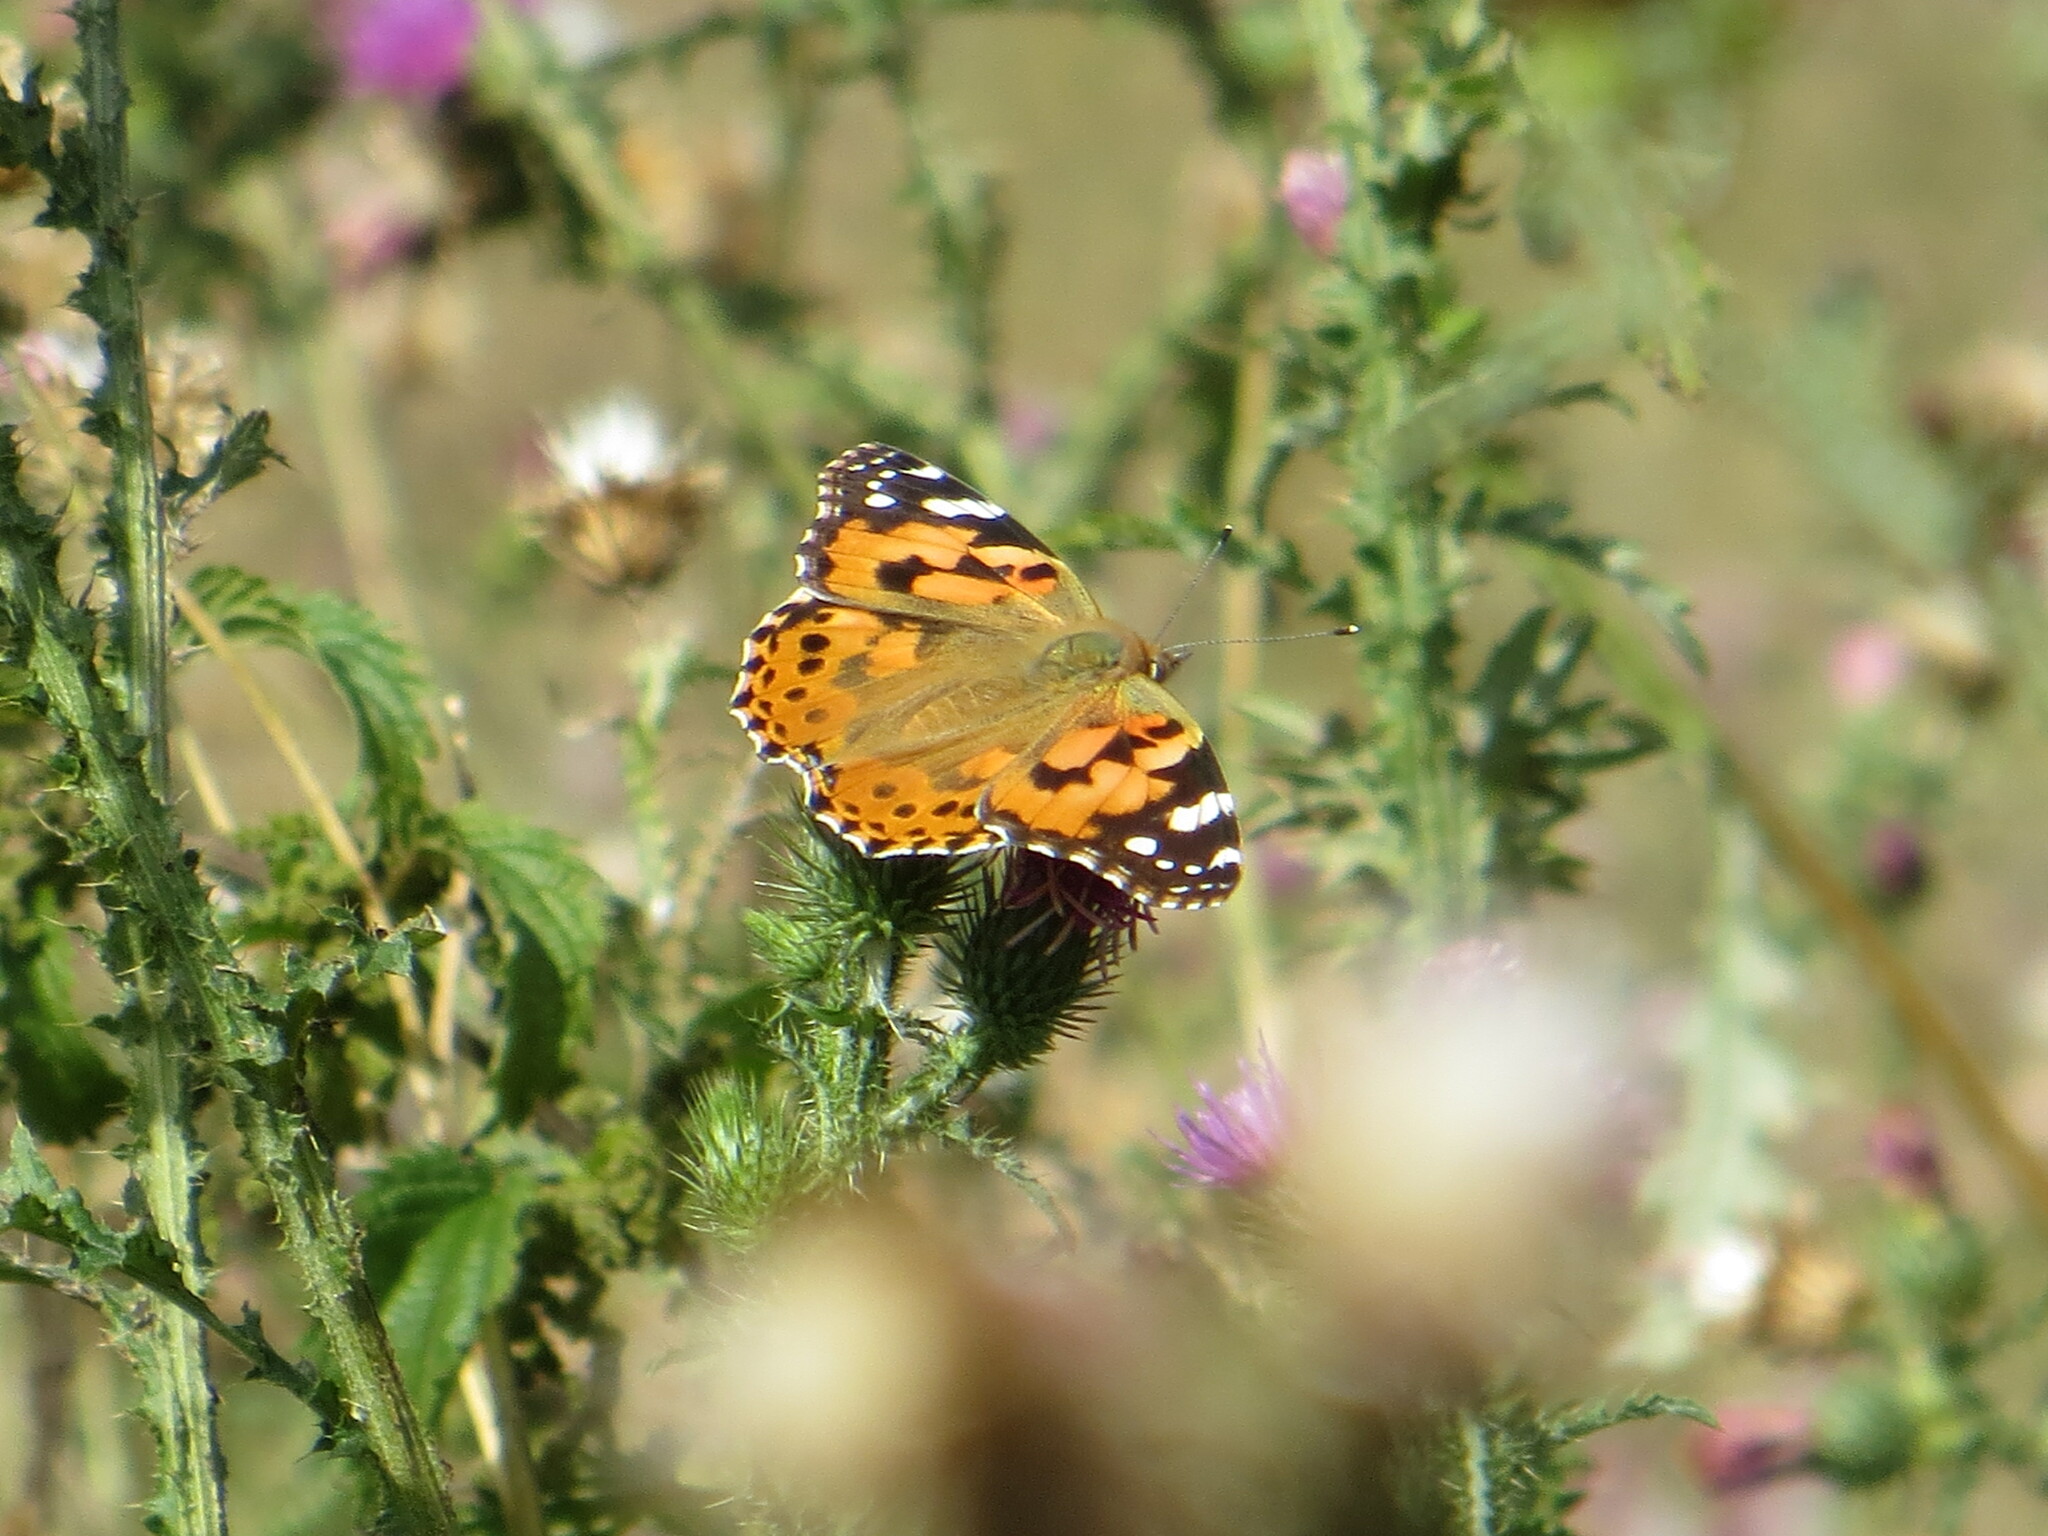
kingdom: Animalia
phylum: Arthropoda
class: Insecta
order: Lepidoptera
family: Nymphalidae
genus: Vanessa
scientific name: Vanessa cardui
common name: Painted lady
